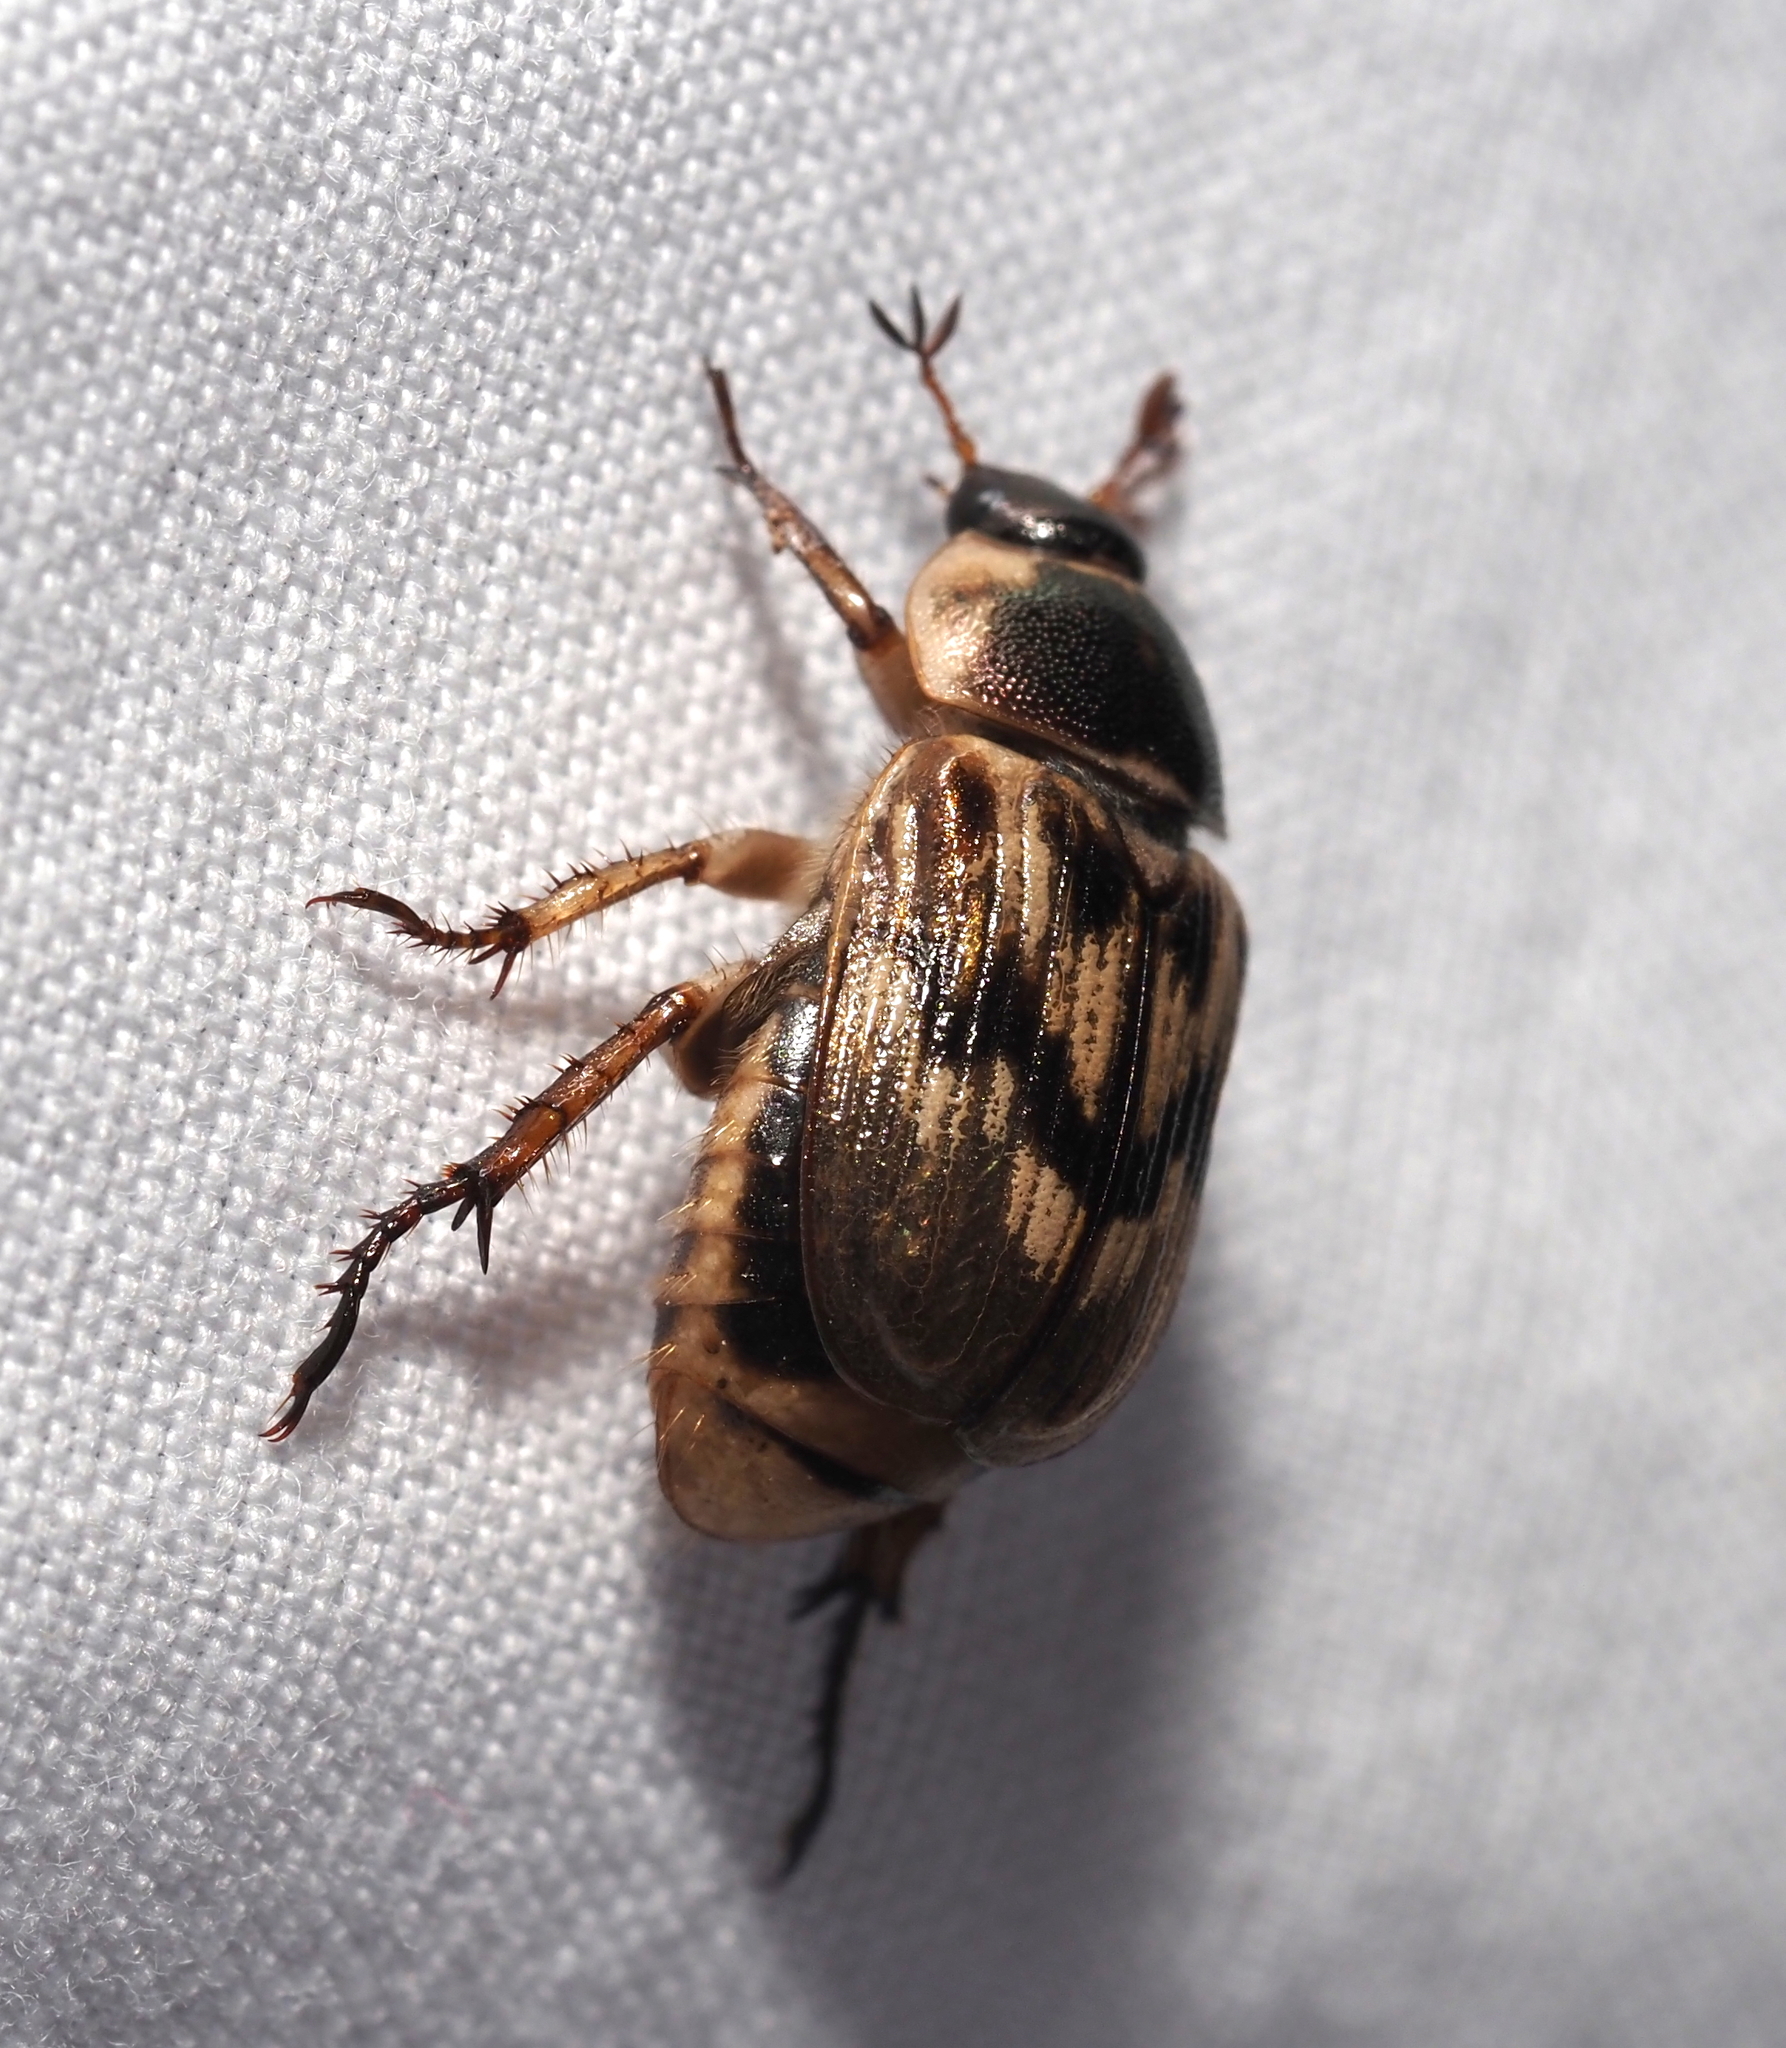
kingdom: Animalia
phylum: Arthropoda
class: Insecta
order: Coleoptera
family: Scarabaeidae
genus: Exomala
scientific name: Exomala orientalis
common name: Oriental beetle
